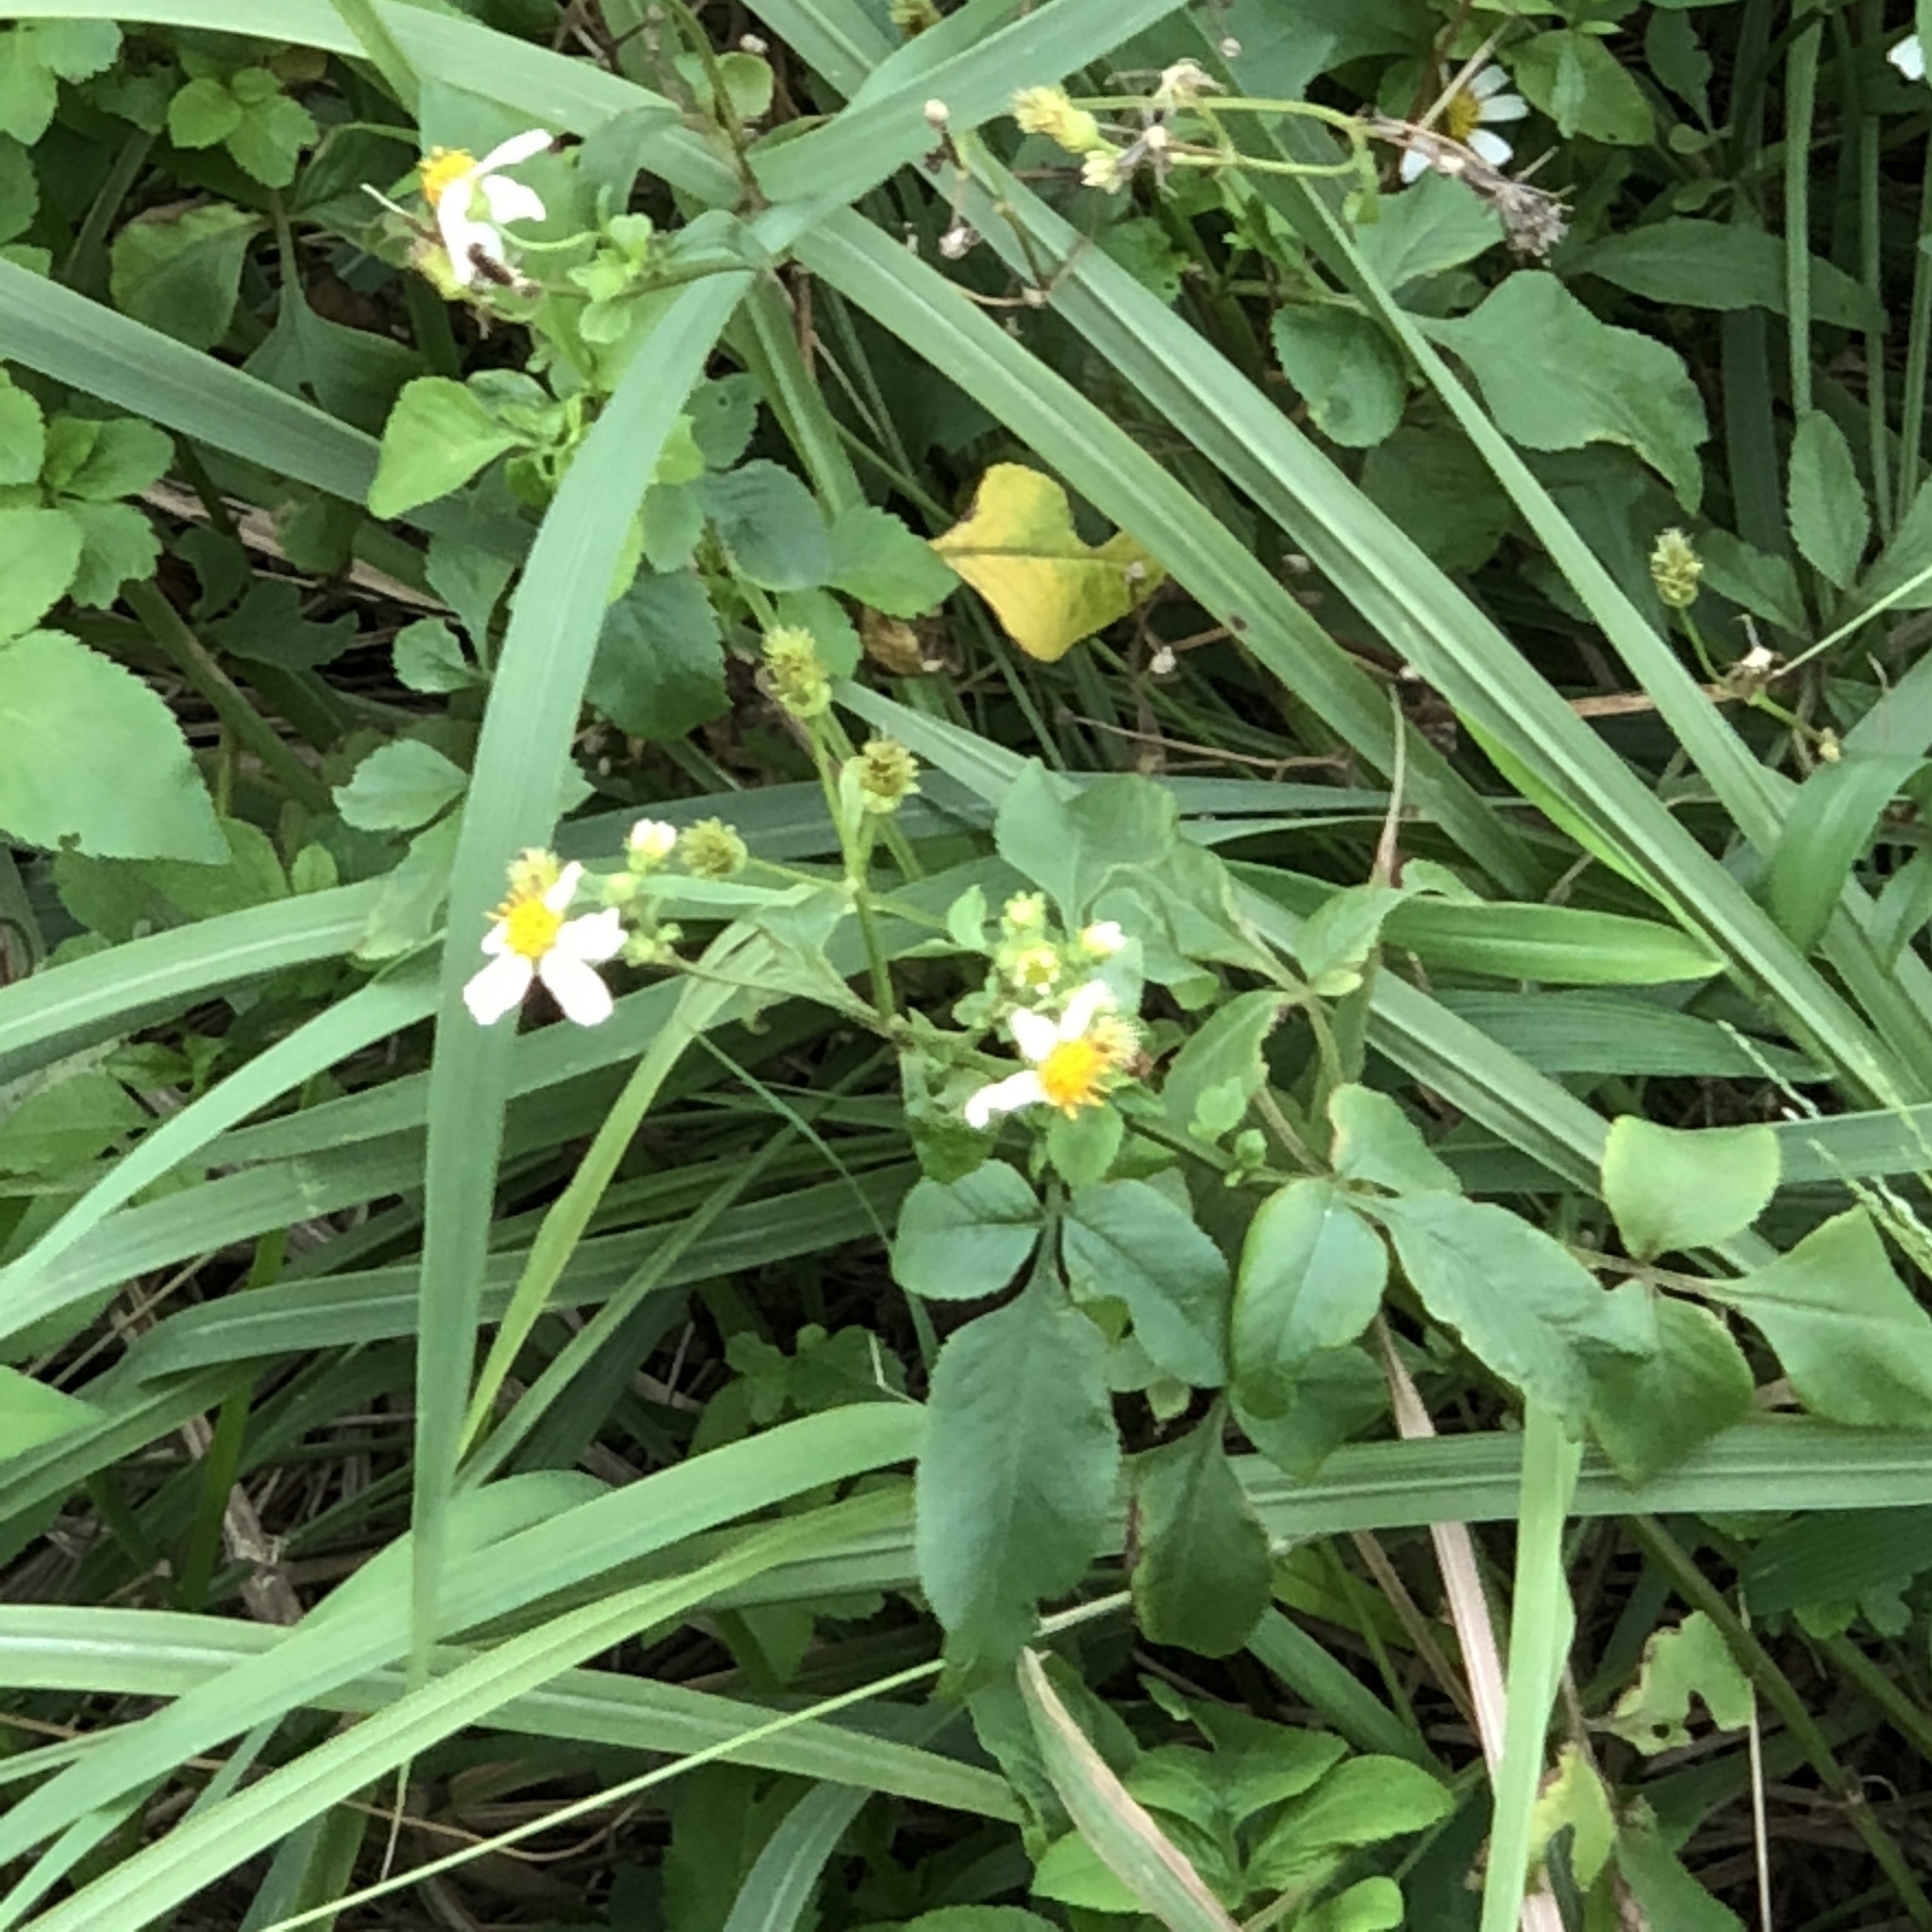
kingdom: Plantae
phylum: Tracheophyta
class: Magnoliopsida
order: Asterales
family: Asteraceae
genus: Bidens
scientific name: Bidens alba
